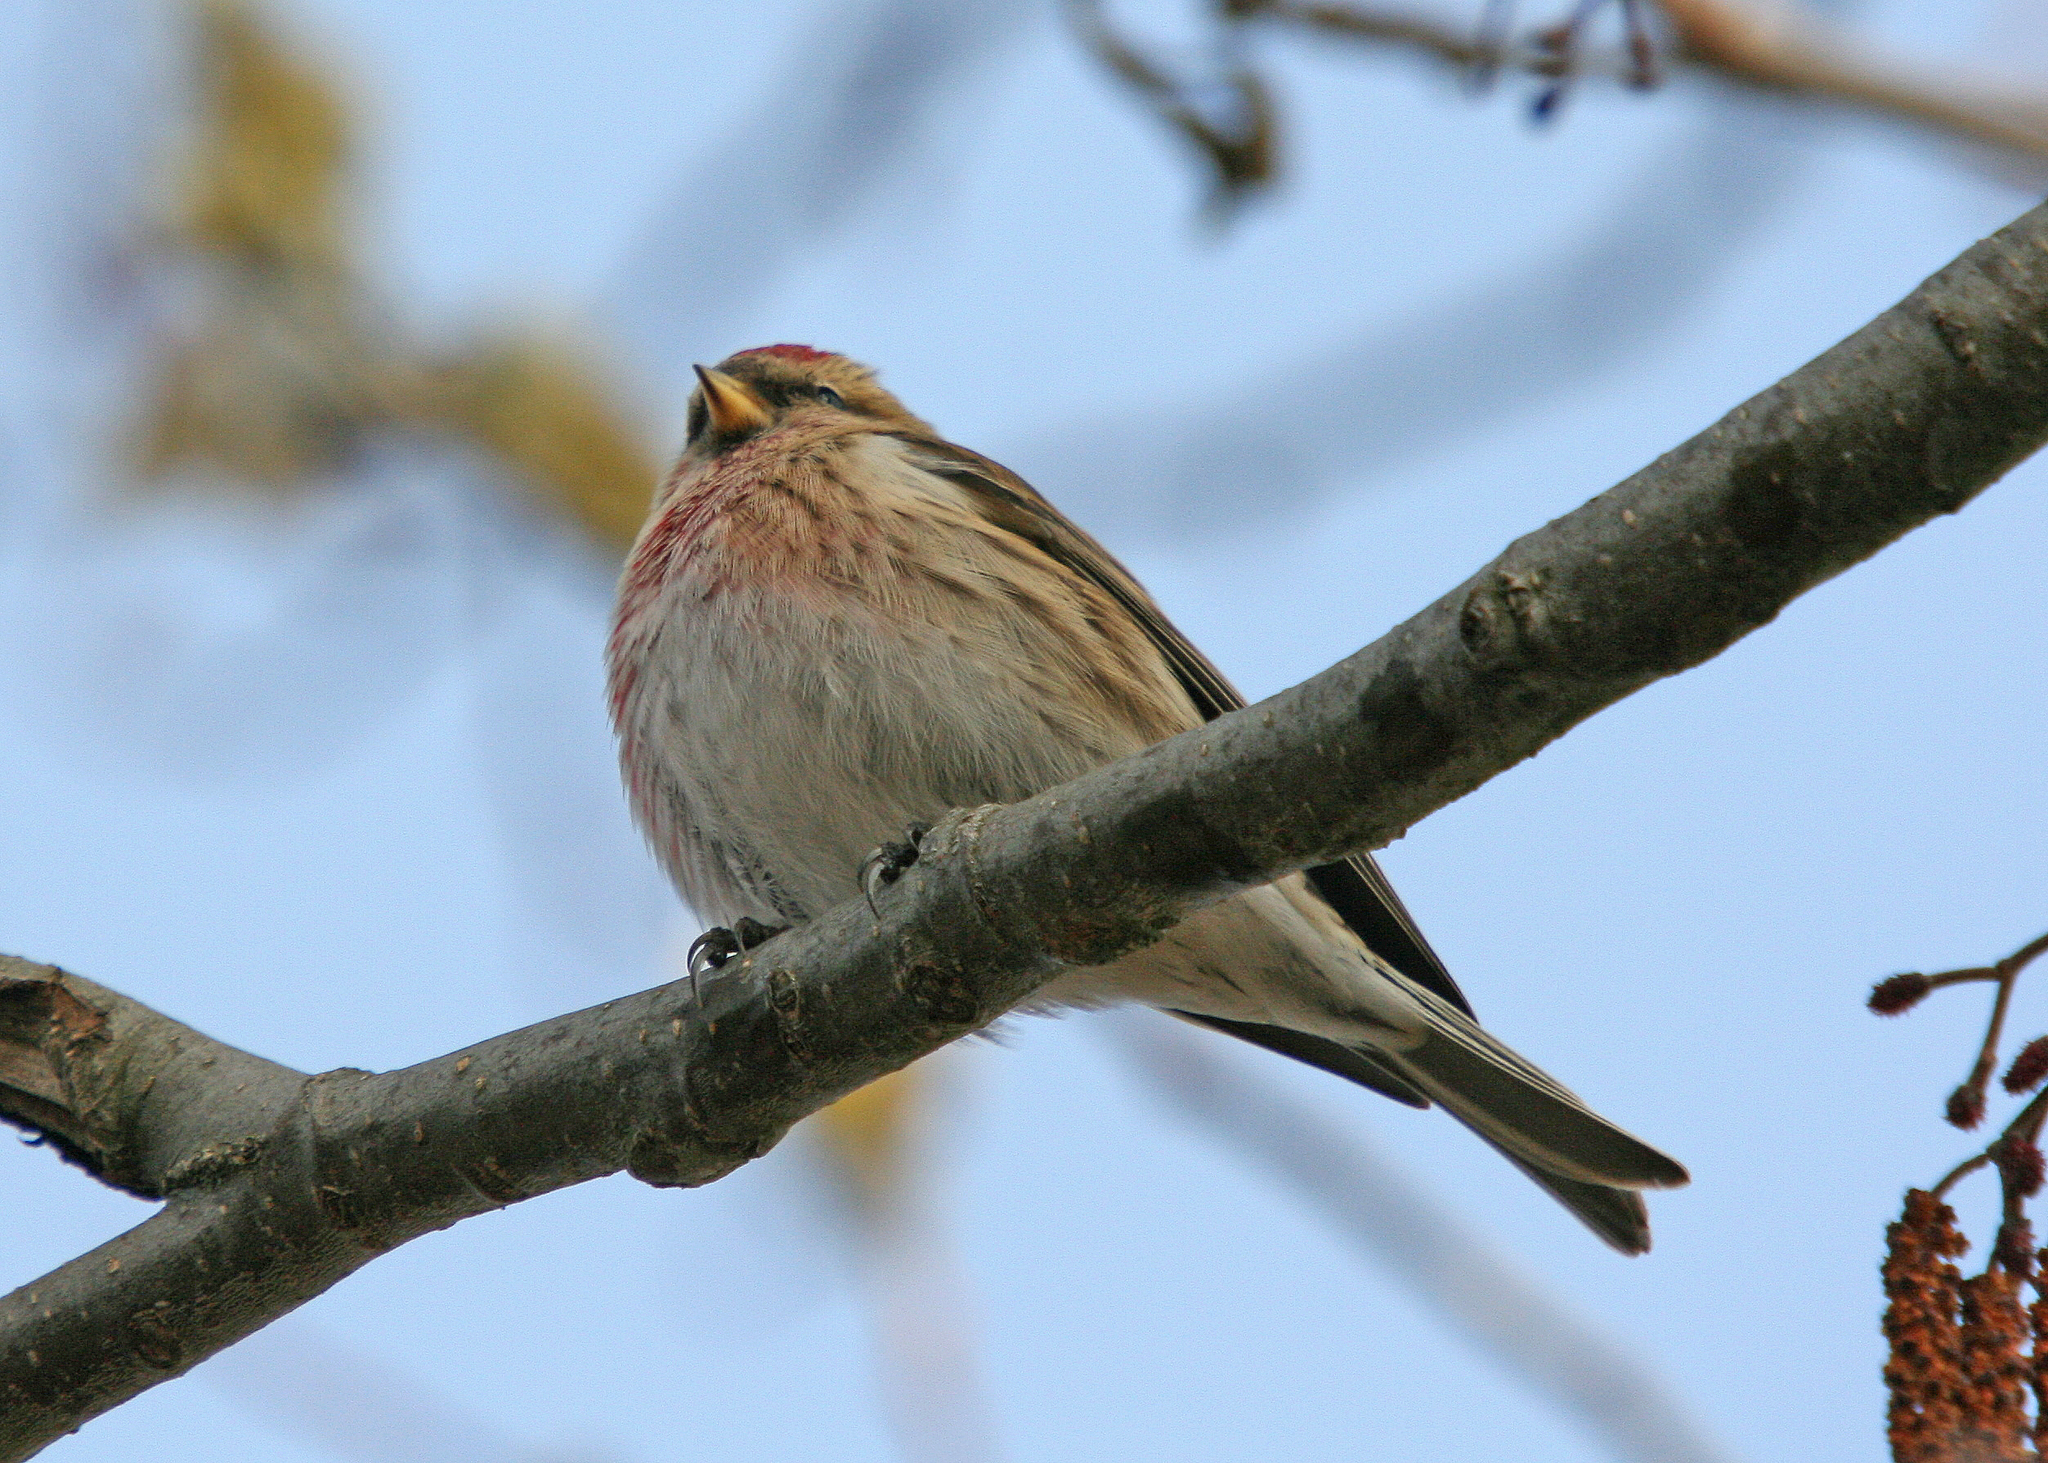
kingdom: Animalia
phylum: Chordata
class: Aves
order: Passeriformes
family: Fringillidae
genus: Acanthis
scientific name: Acanthis flammea
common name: Common redpoll
